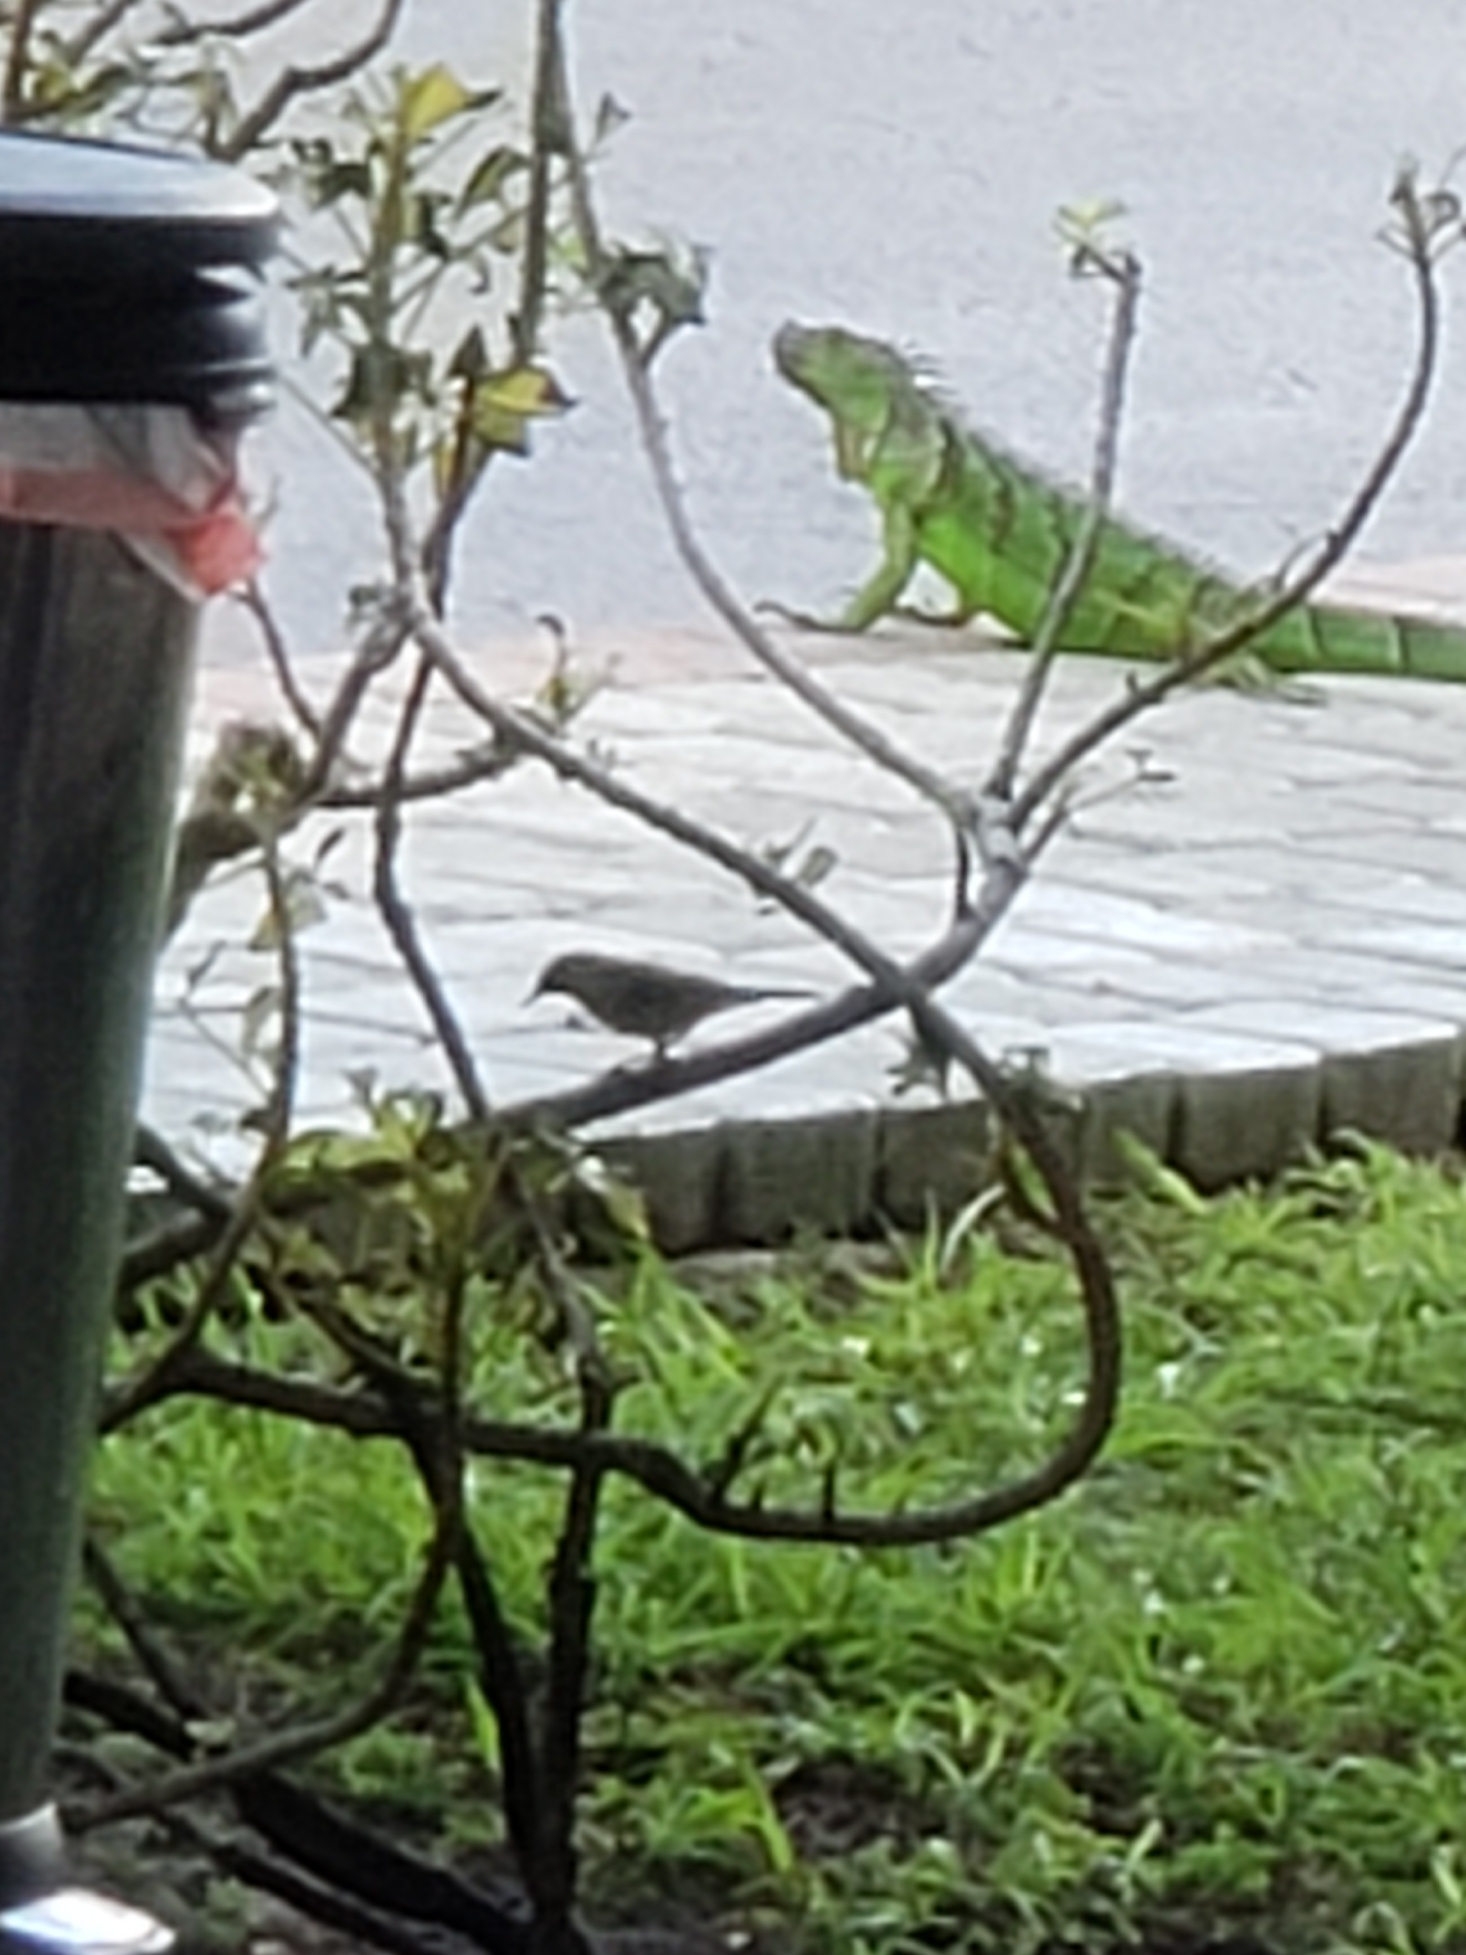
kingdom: Animalia
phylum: Chordata
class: Aves
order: Passeriformes
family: Parulidae
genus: Setophaga
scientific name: Setophaga palmarum
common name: Palm warbler
